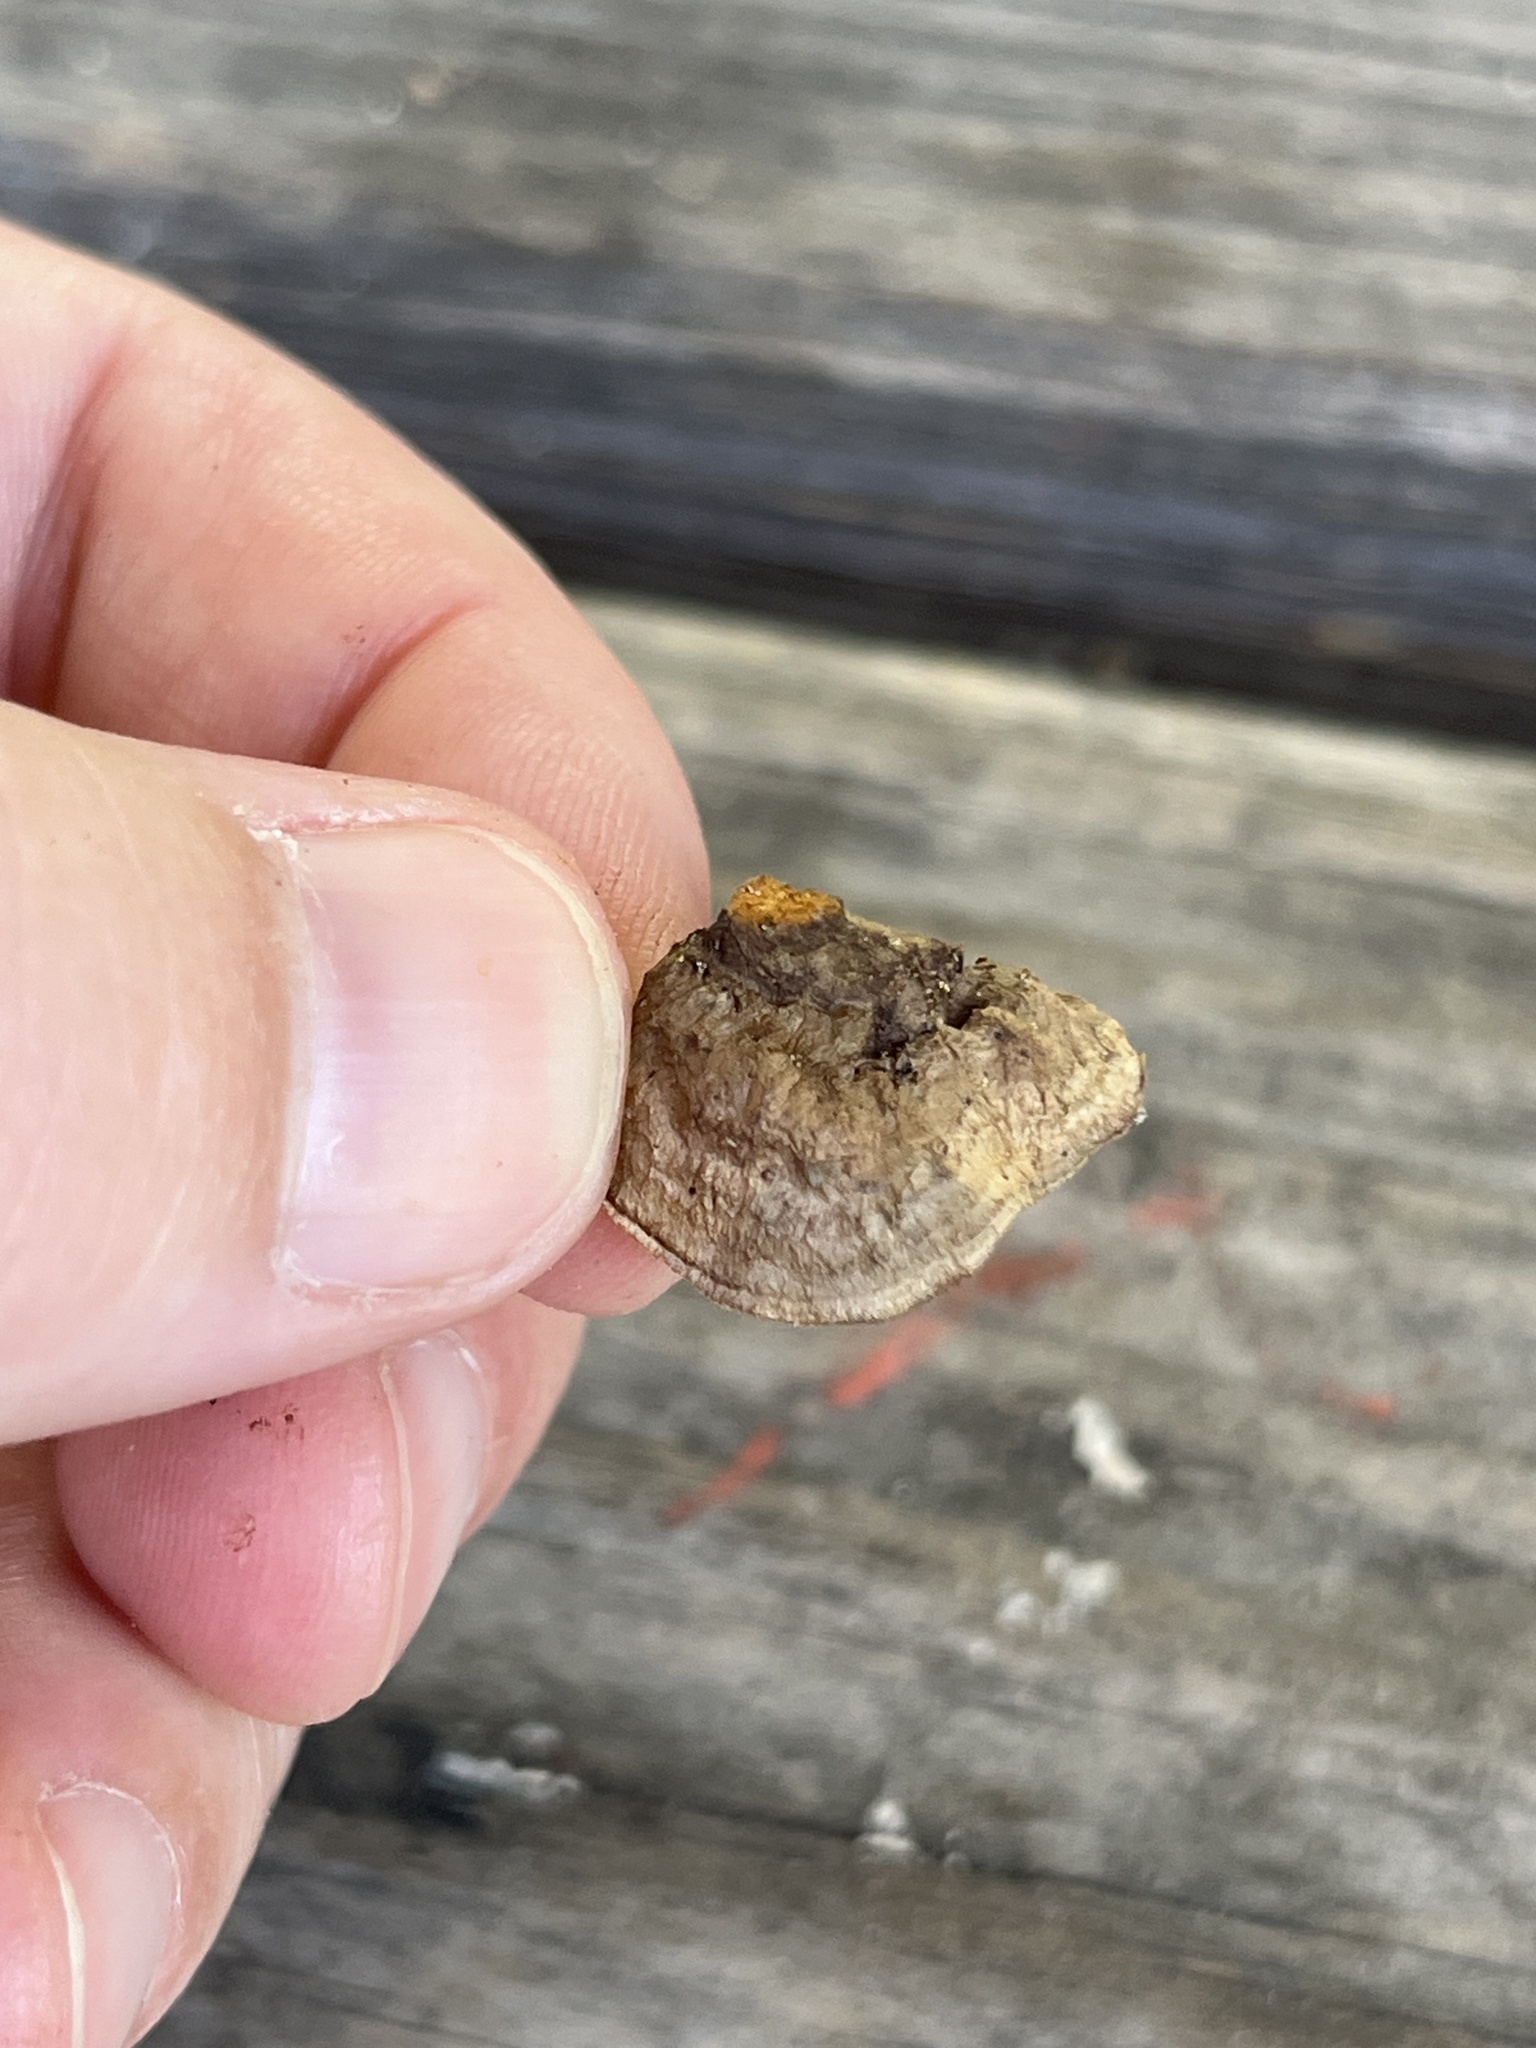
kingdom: Fungi
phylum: Basidiomycota
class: Agaricomycetes
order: Gloeophyllales
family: Gloeophyllaceae
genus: Gloeophyllum
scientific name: Gloeophyllum sepiarium
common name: Conifer mazegill
